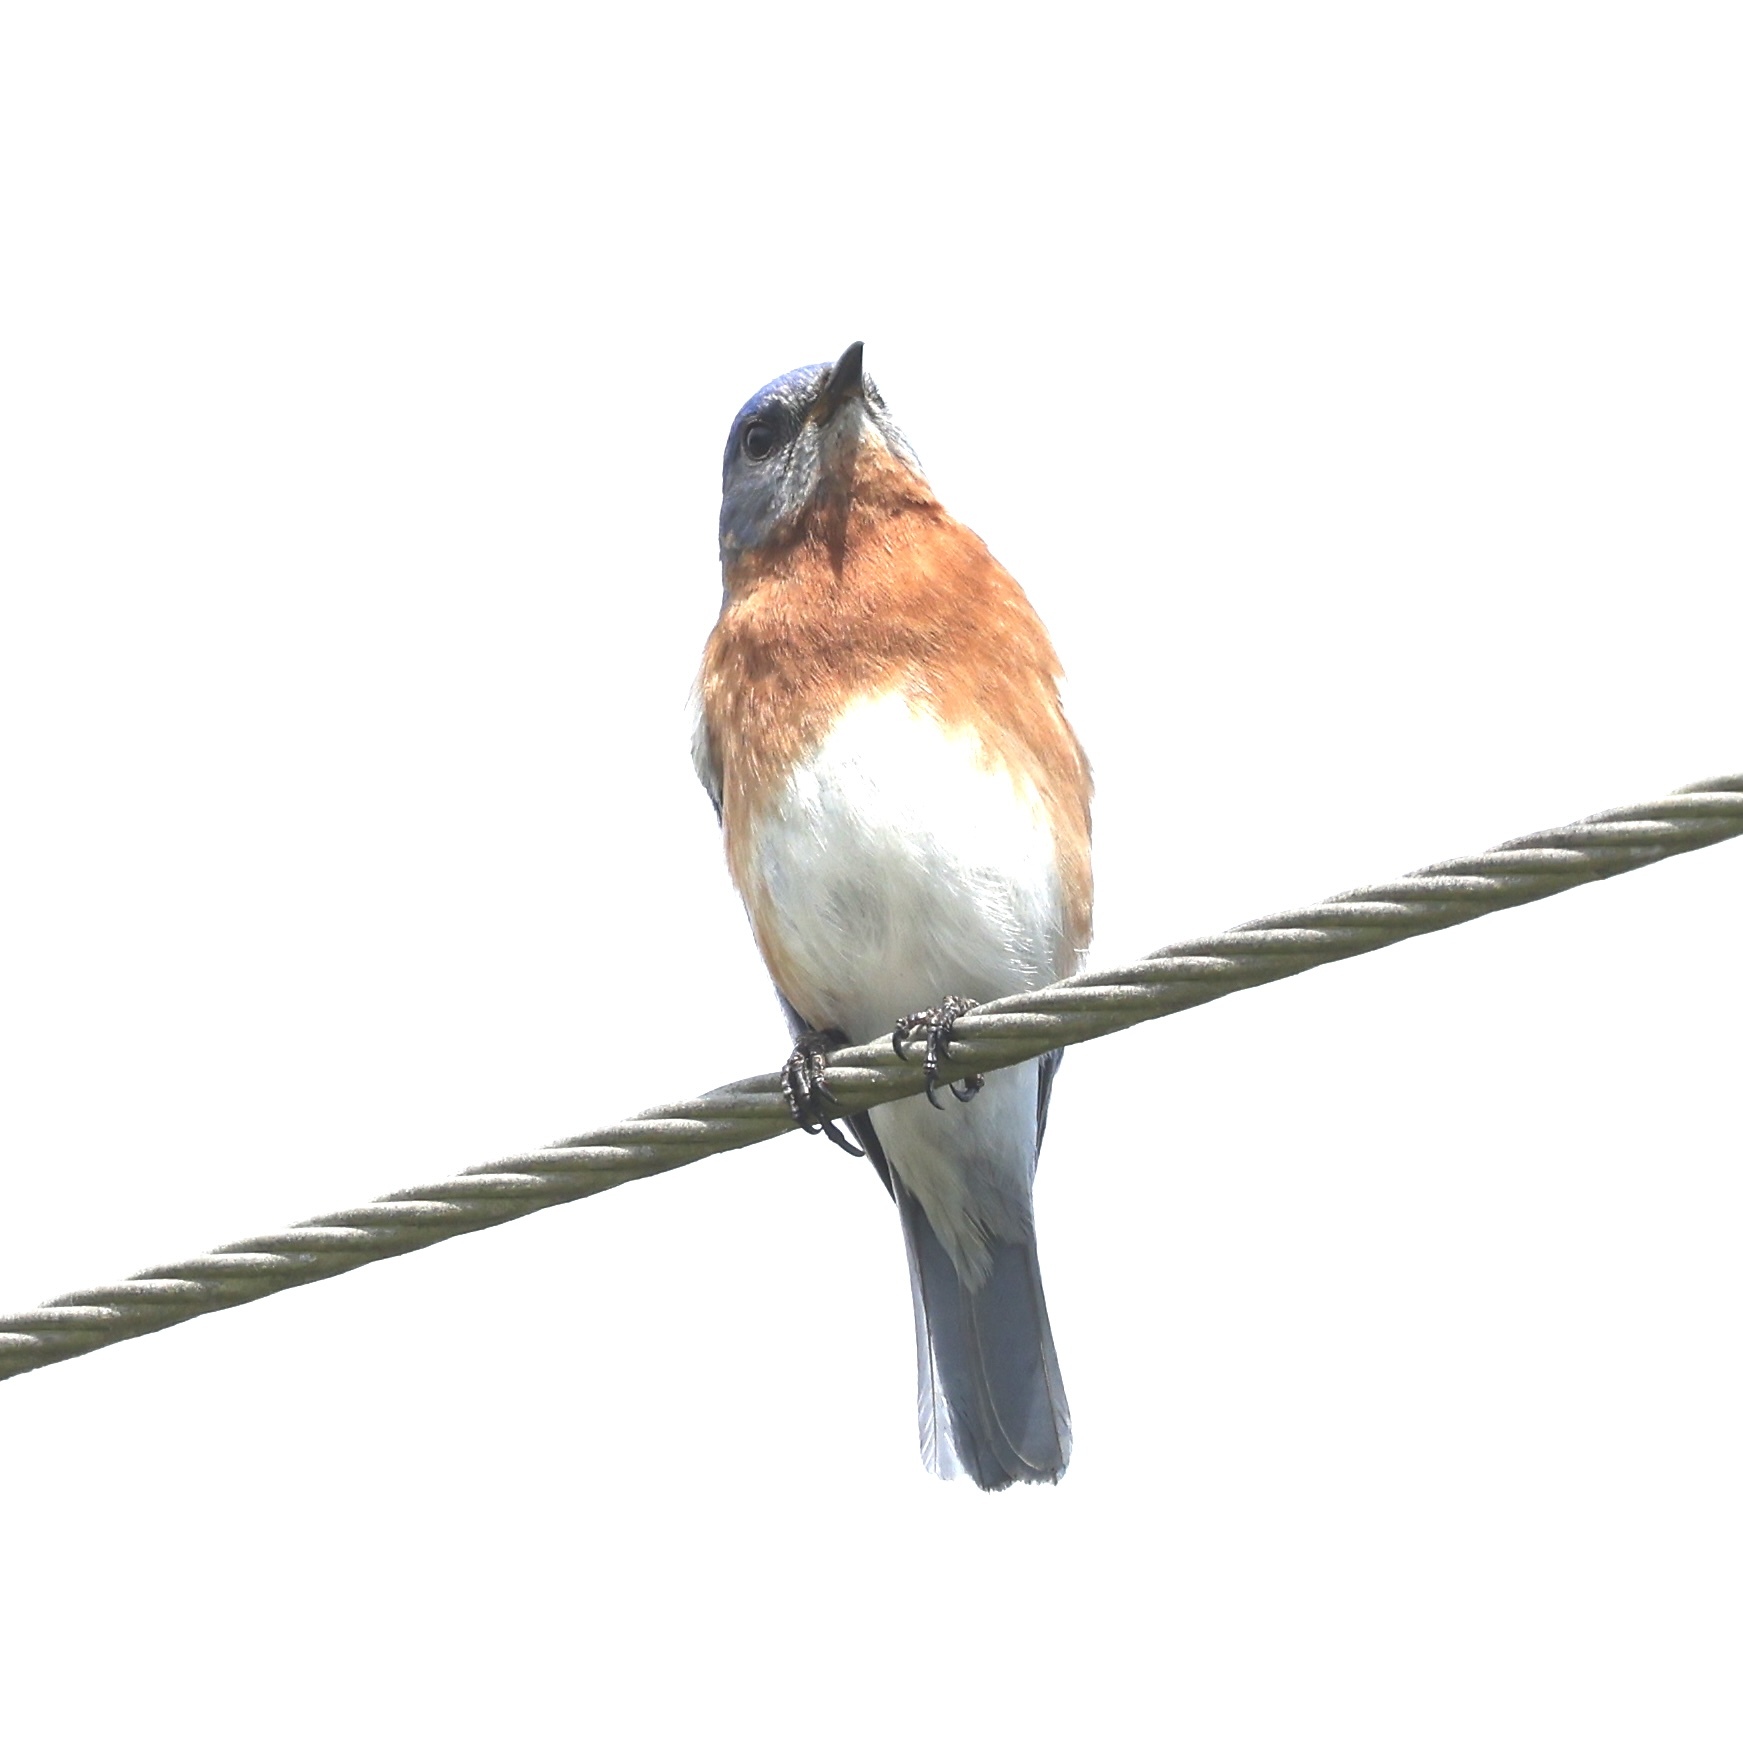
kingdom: Animalia
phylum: Chordata
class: Aves
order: Passeriformes
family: Turdidae
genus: Sialia
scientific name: Sialia sialis
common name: Eastern bluebird
